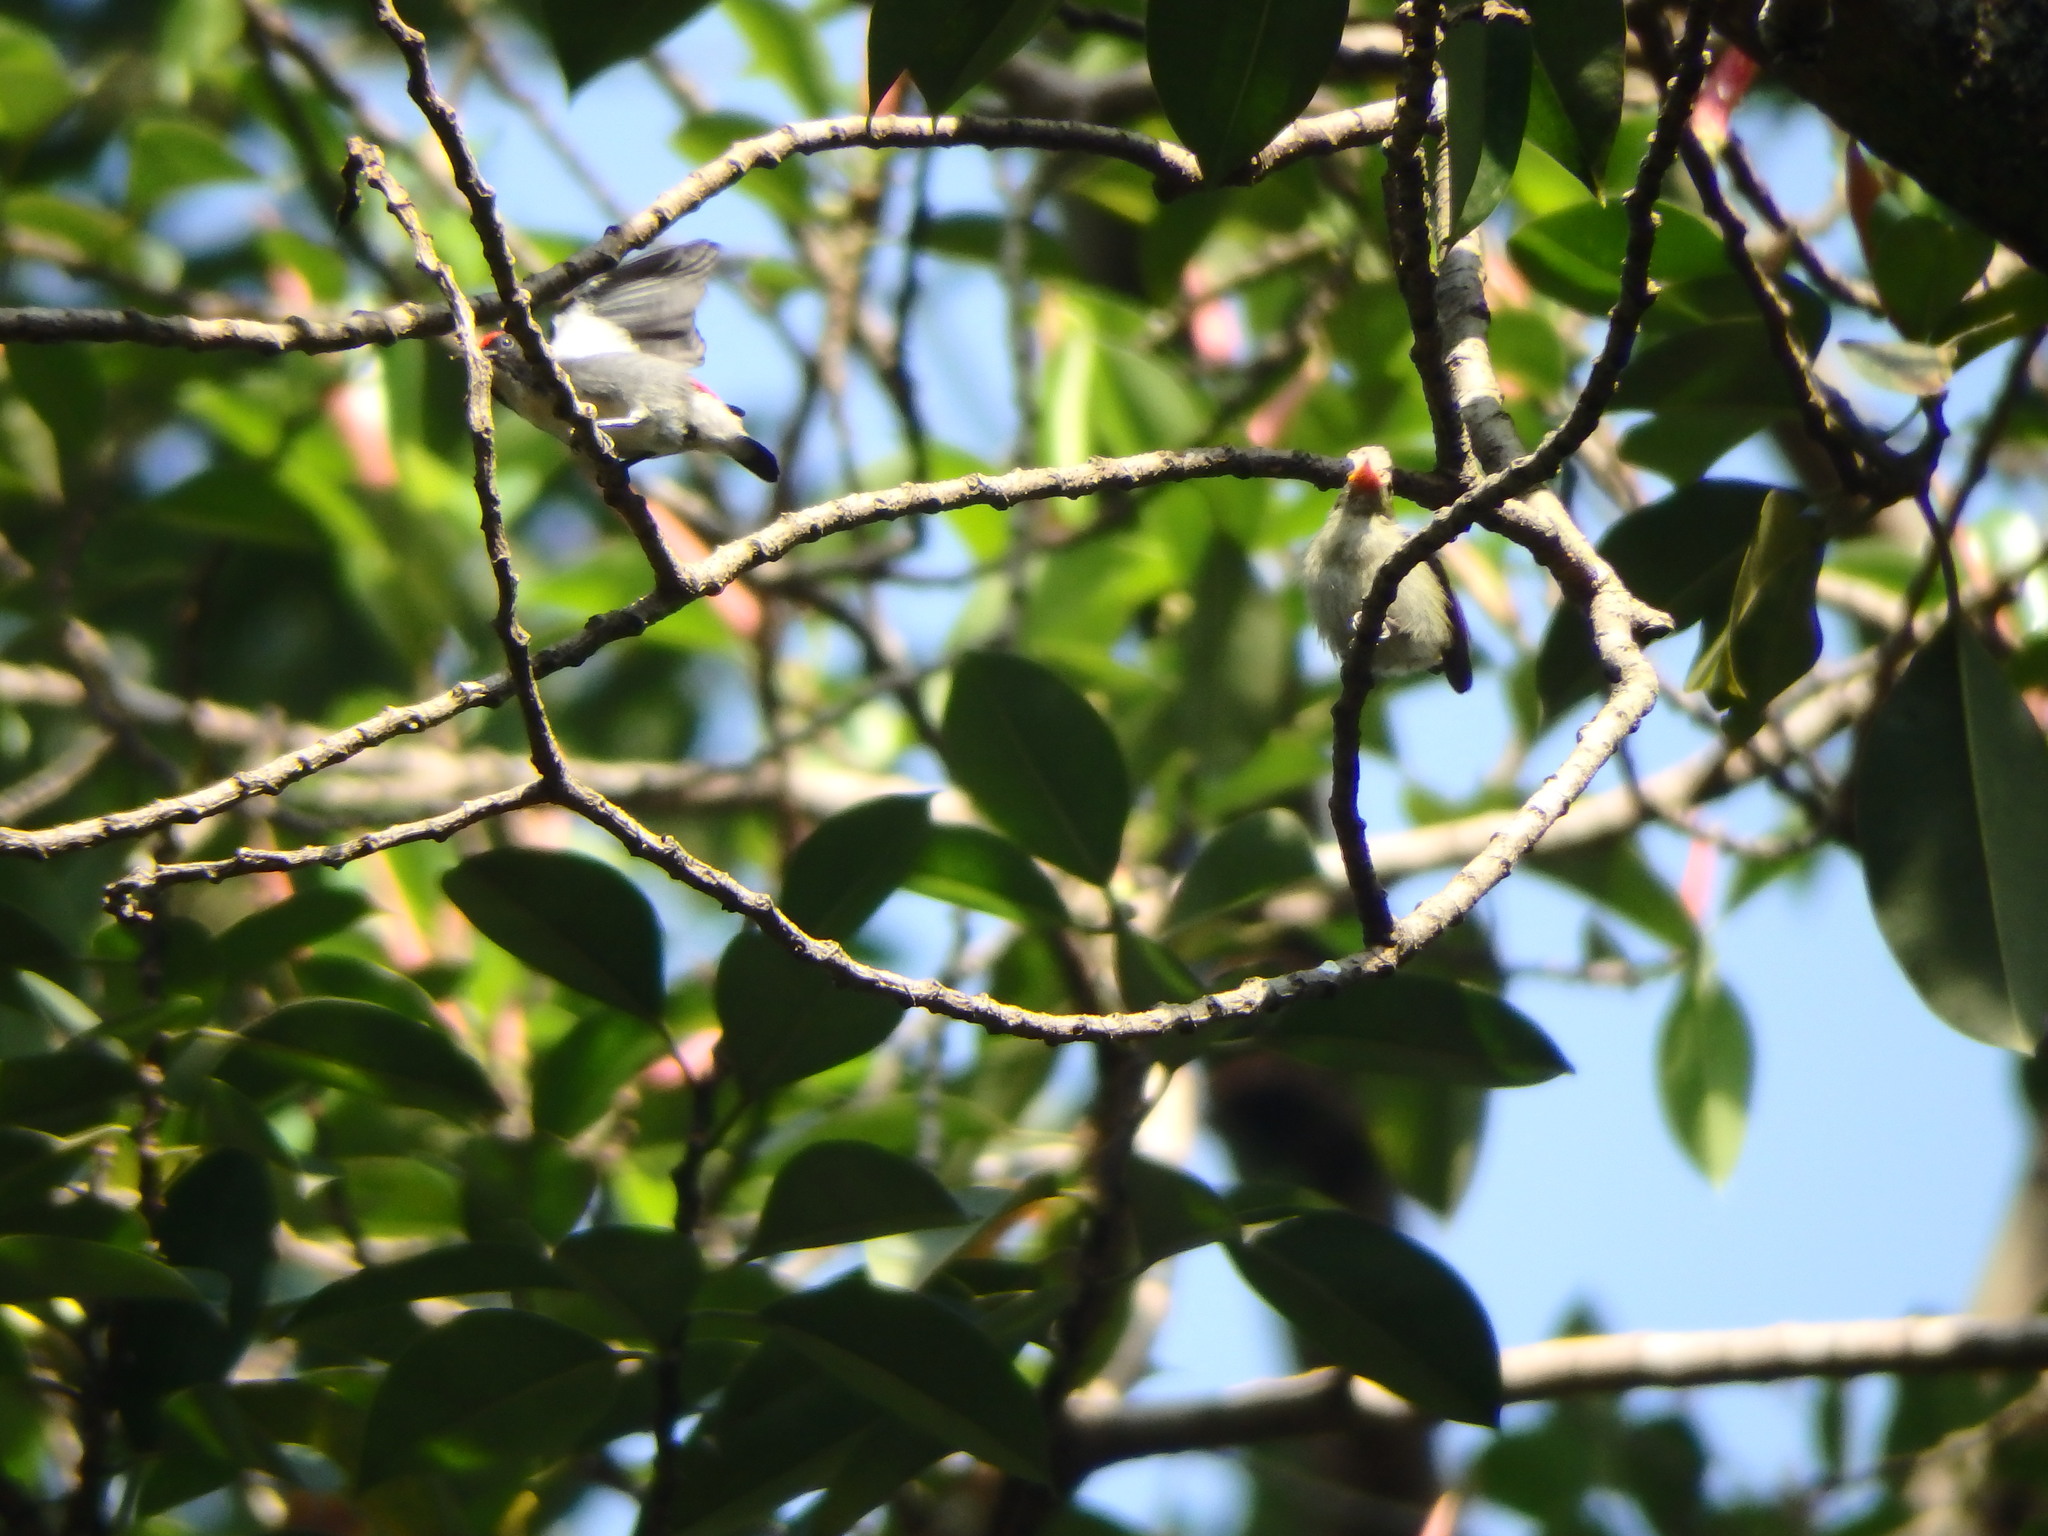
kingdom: Animalia
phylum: Chordata
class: Aves
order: Passeriformes
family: Dicaeidae
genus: Dicaeum
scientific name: Dicaeum cruentatum
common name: Scarlet-backed flowerpecker
